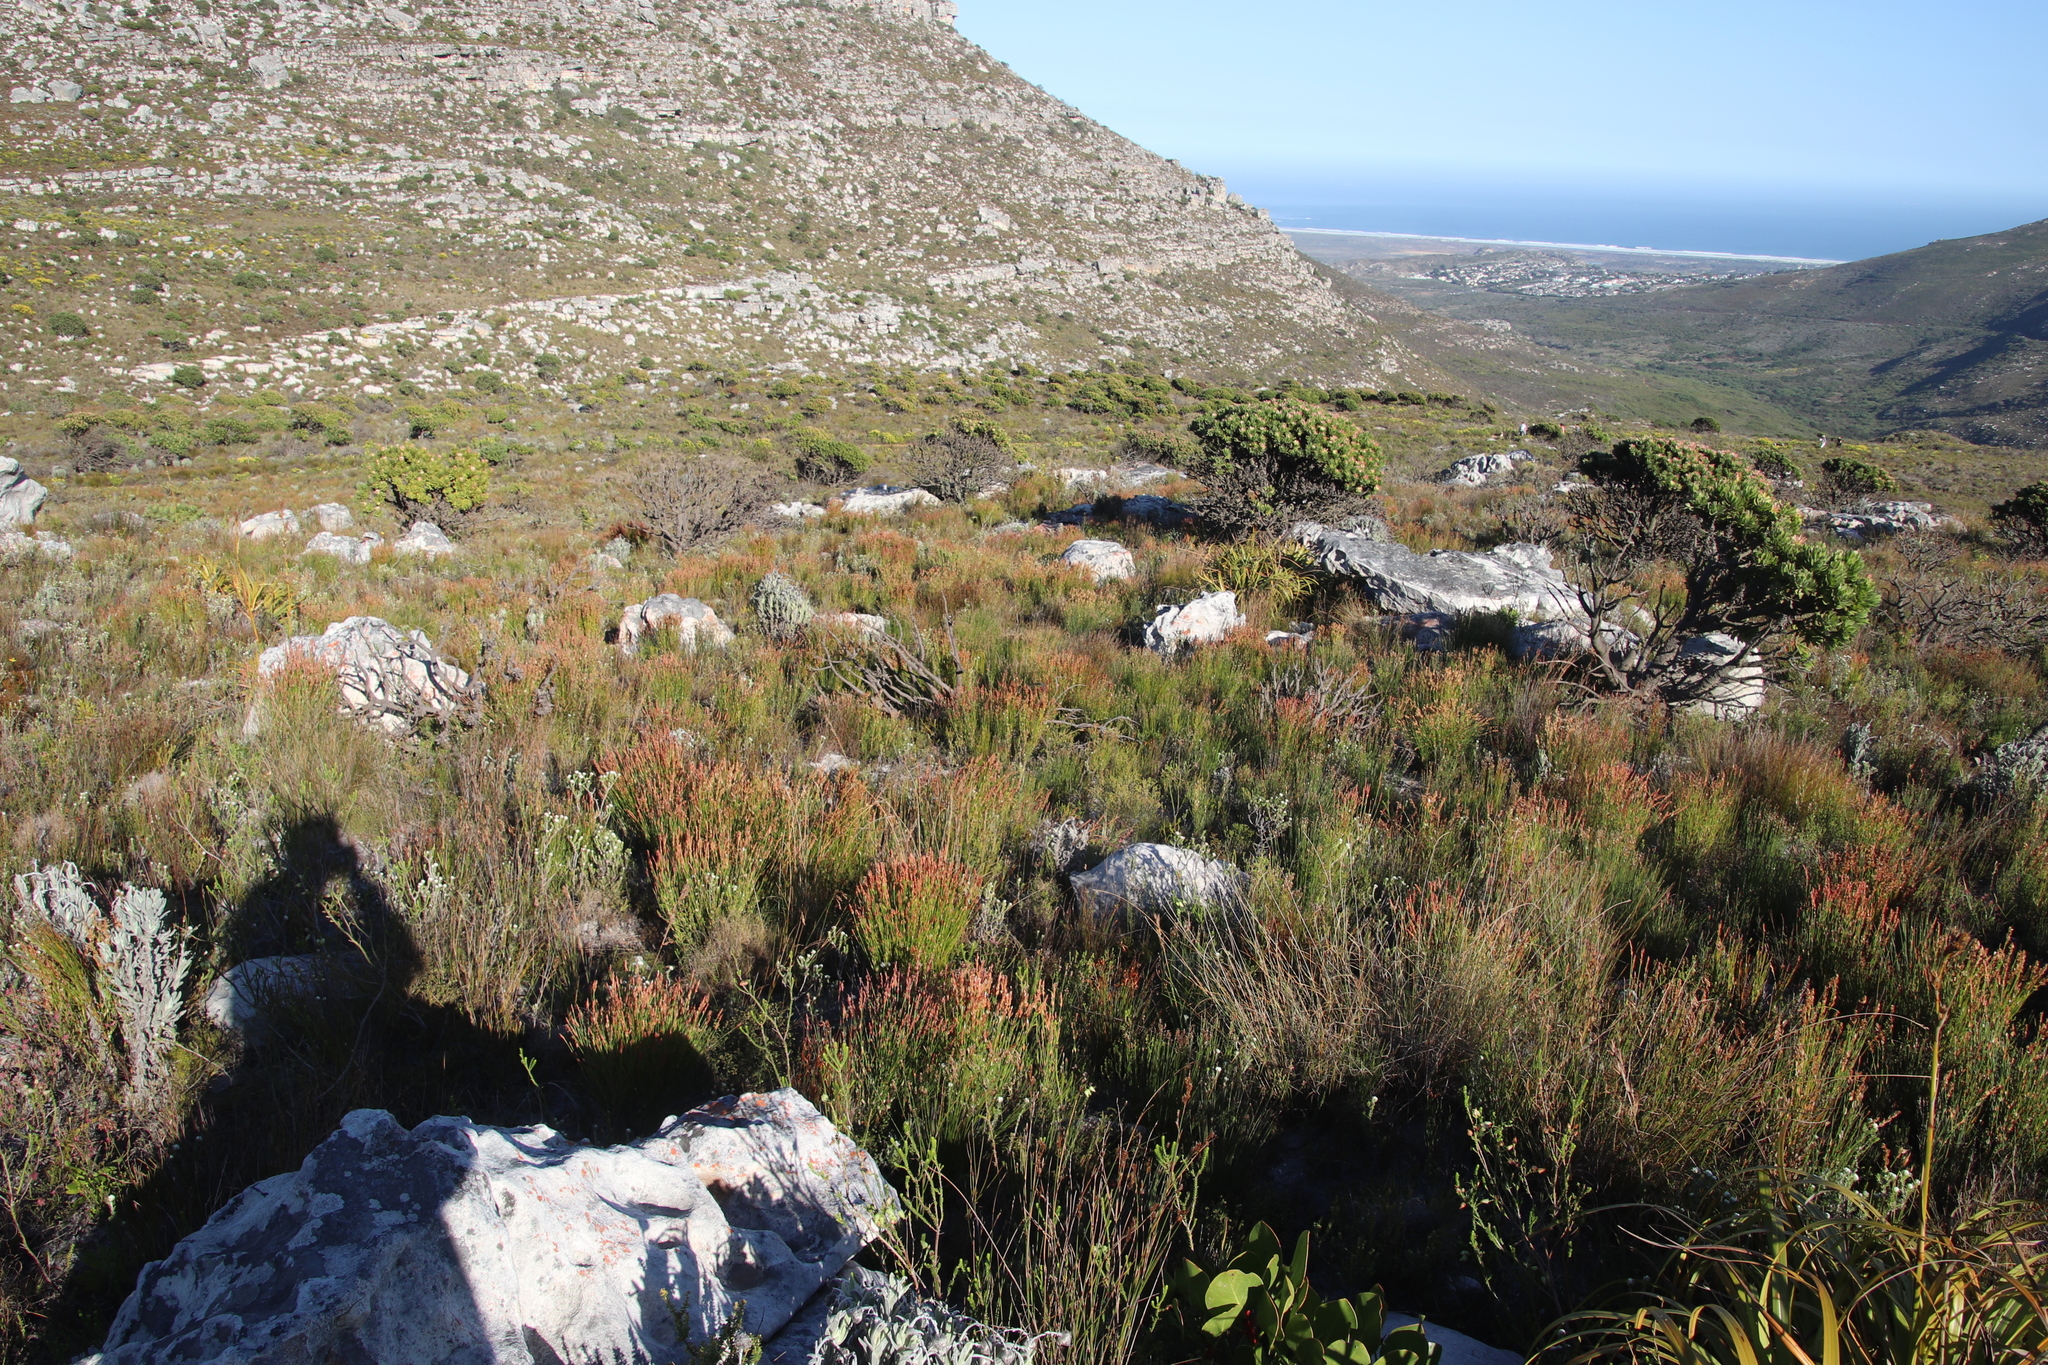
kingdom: Plantae
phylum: Tracheophyta
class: Liliopsida
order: Poales
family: Restionaceae
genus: Elegia
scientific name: Elegia stipularis
